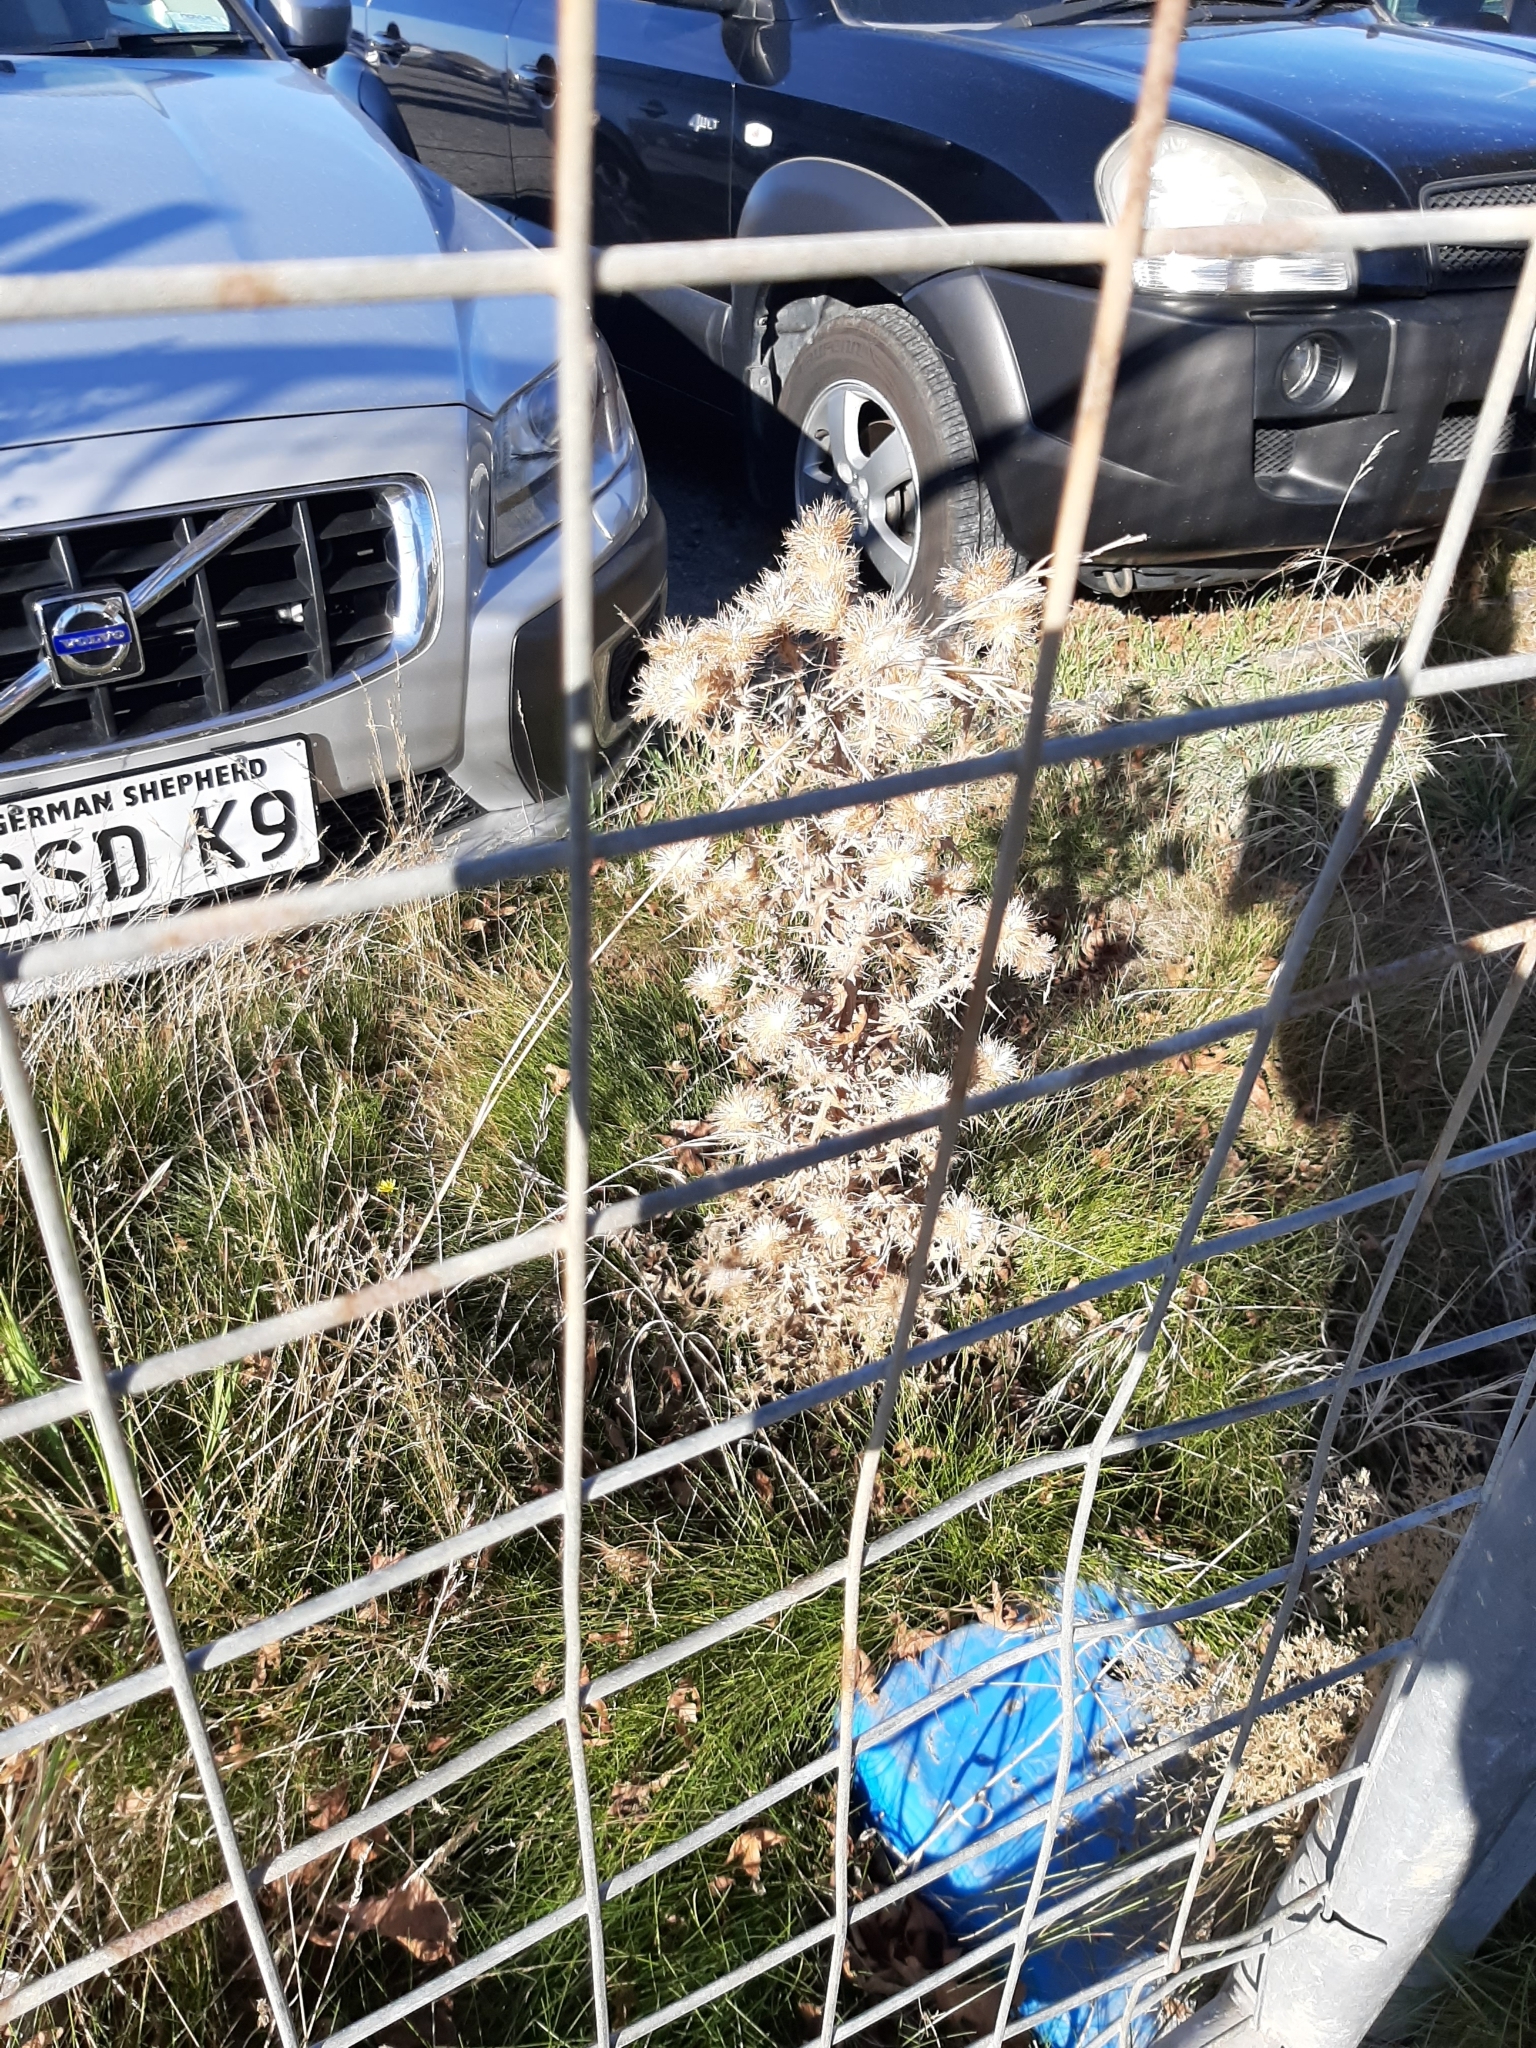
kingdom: Plantae
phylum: Tracheophyta
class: Magnoliopsida
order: Asterales
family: Asteraceae
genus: Cirsium
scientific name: Cirsium vulgare
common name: Bull thistle
